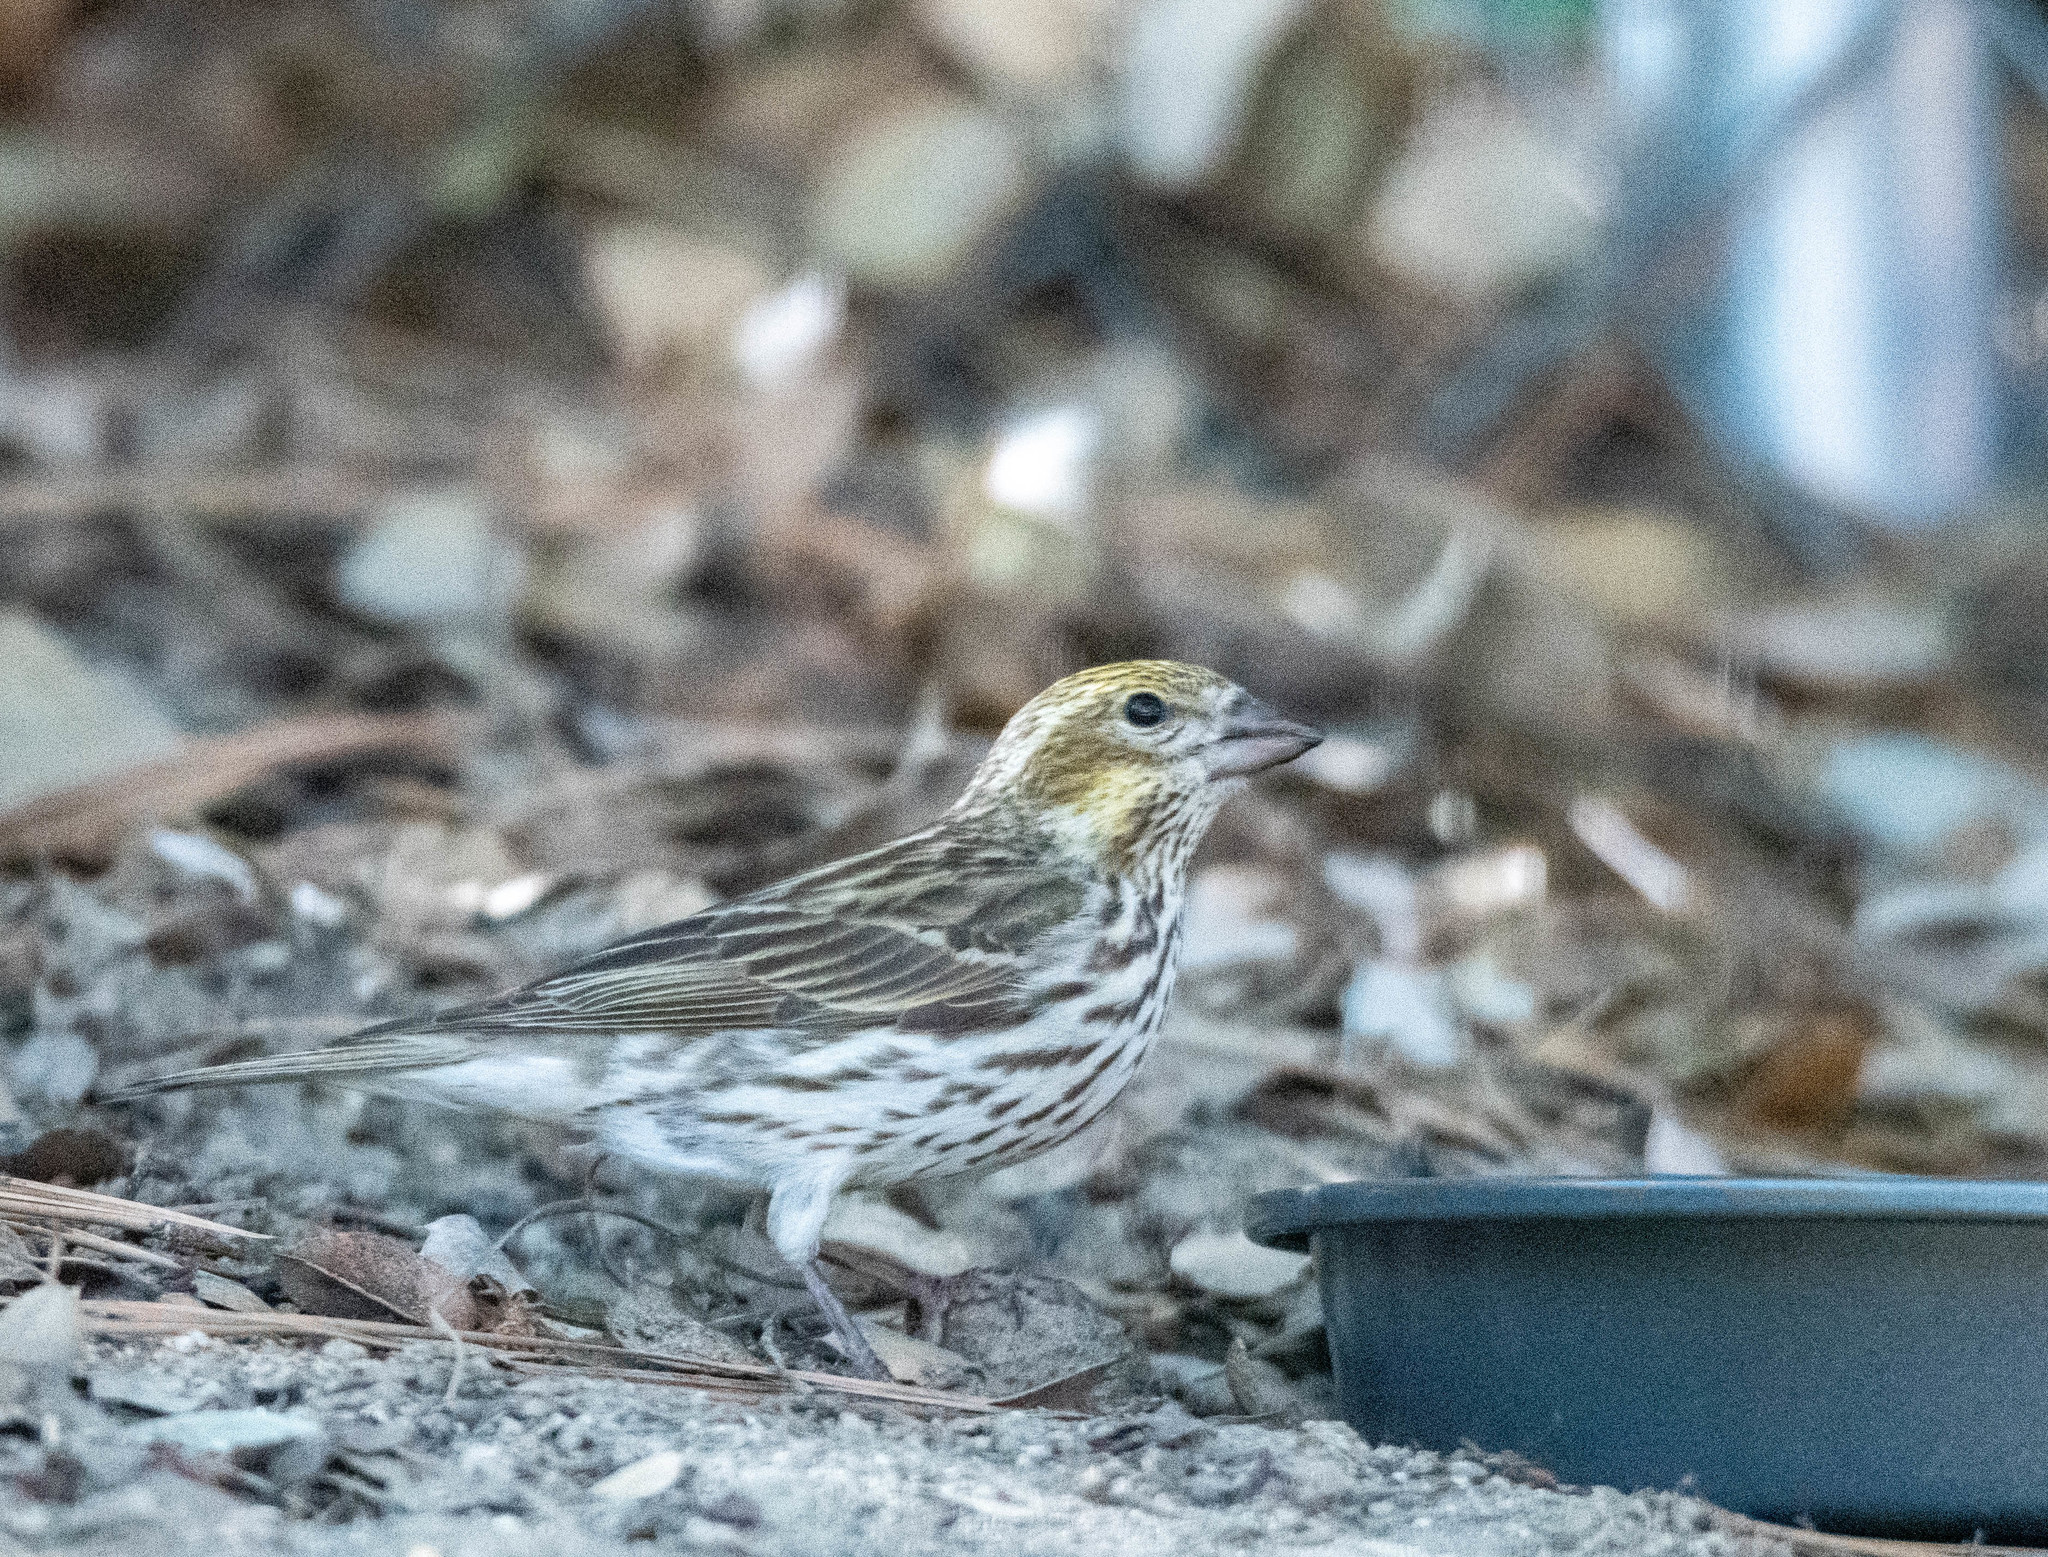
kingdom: Animalia
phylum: Chordata
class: Aves
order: Passeriformes
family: Fringillidae
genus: Haemorhous
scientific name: Haemorhous cassinii
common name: Cassin's finch
